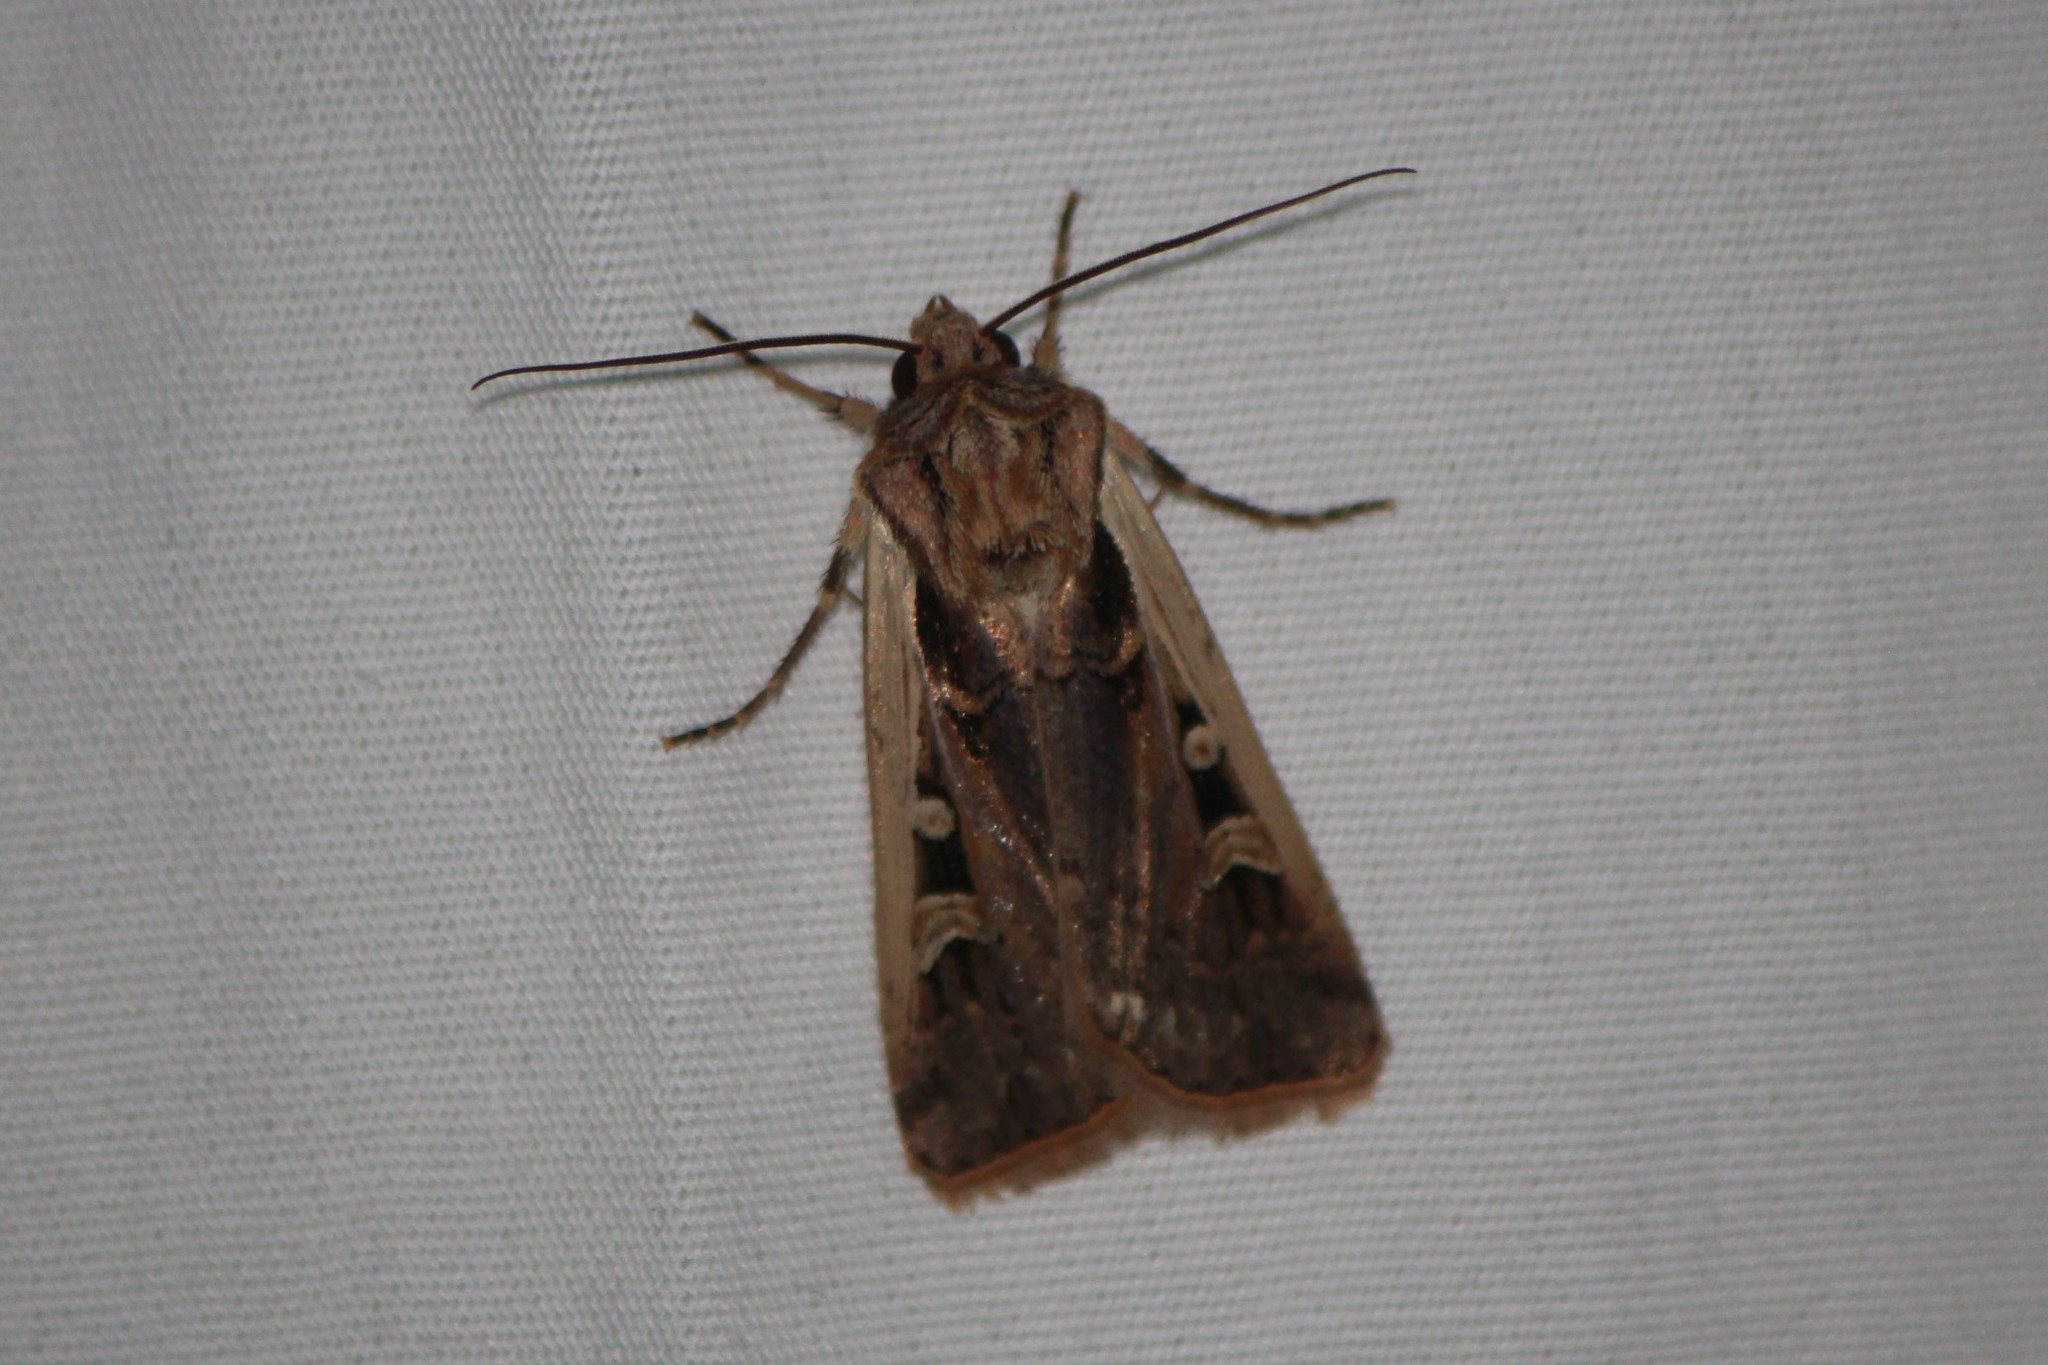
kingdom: Animalia
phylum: Arthropoda
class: Insecta
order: Lepidoptera
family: Noctuidae
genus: Striacosta
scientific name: Striacosta albicosta
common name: Western bean cutworm moth
